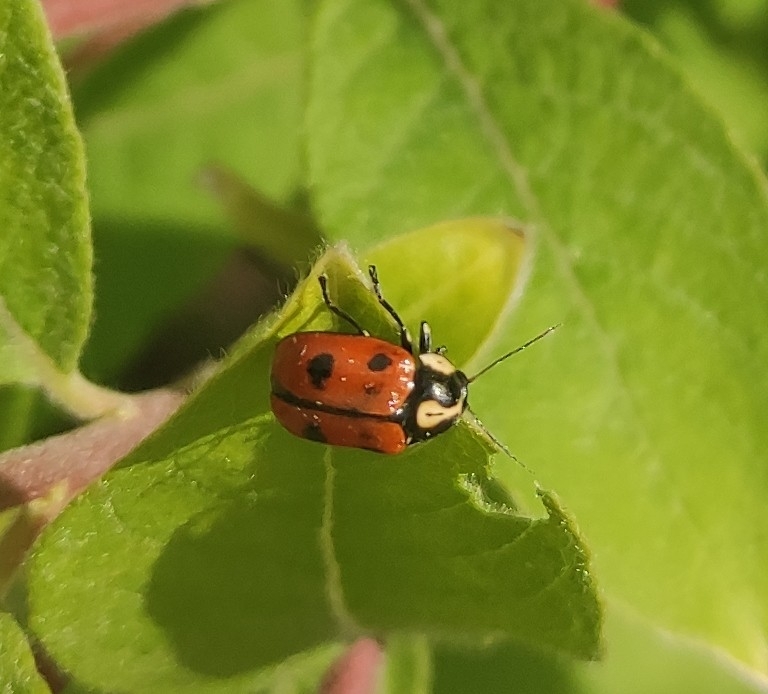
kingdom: Animalia
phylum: Arthropoda
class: Insecta
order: Coleoptera
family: Chrysomelidae
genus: Cryptocephalus
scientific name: Cryptocephalus octopunctatus
